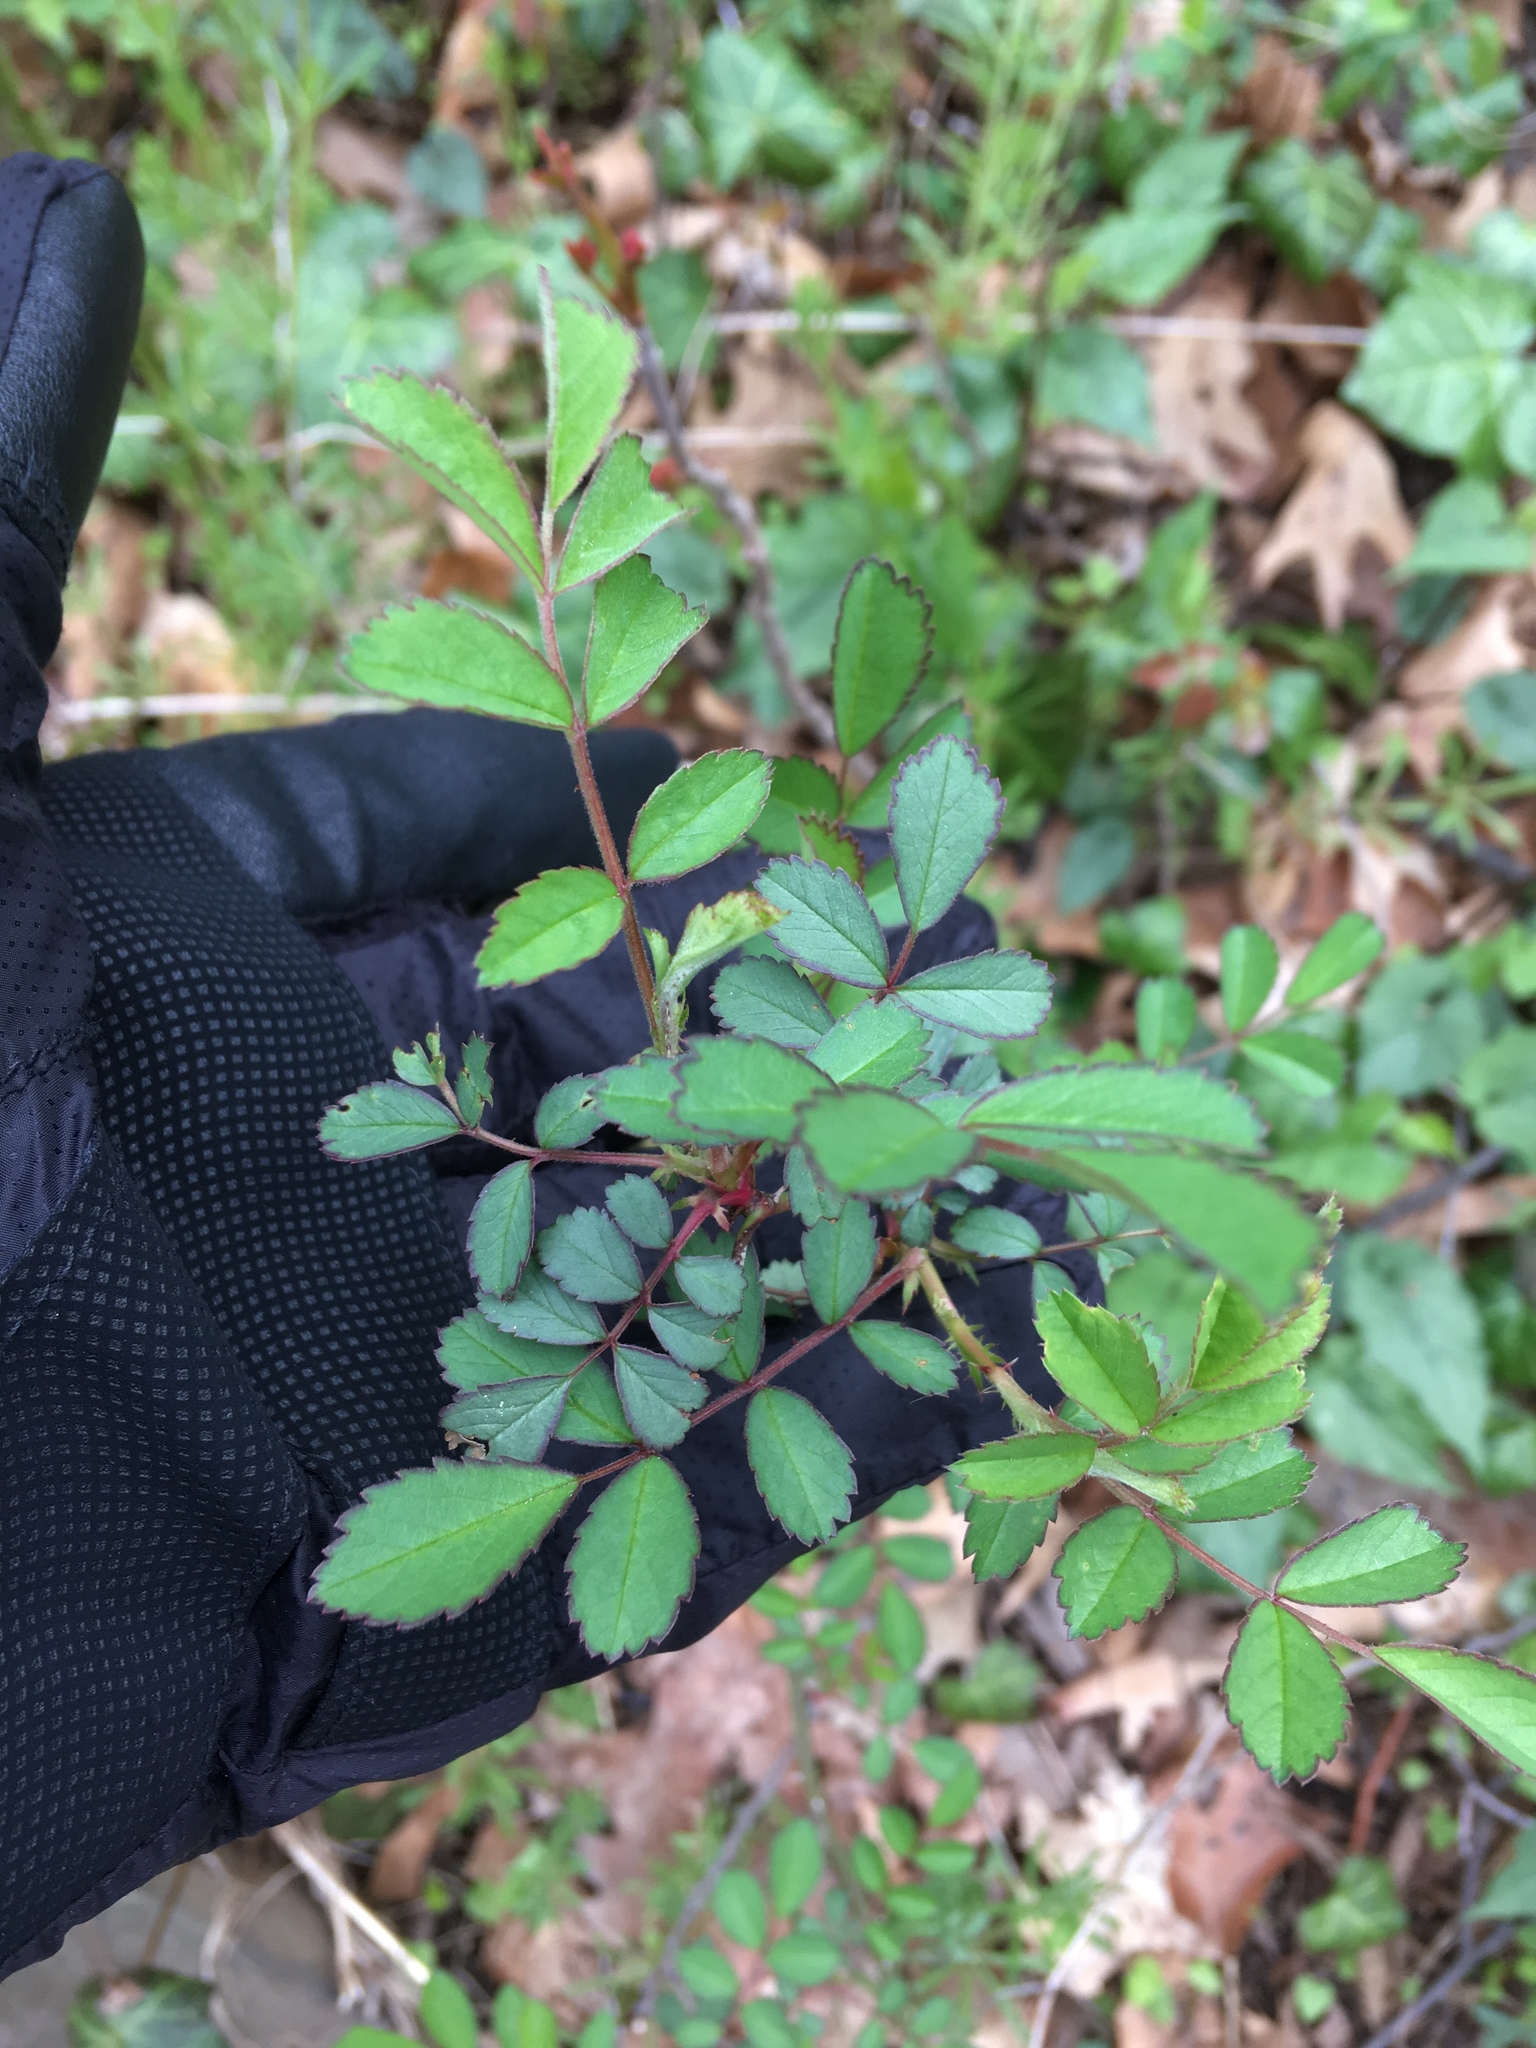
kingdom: Plantae
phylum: Tracheophyta
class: Magnoliopsida
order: Rosales
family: Rosaceae
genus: Rosa
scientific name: Rosa multiflora
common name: Multiflora rose
